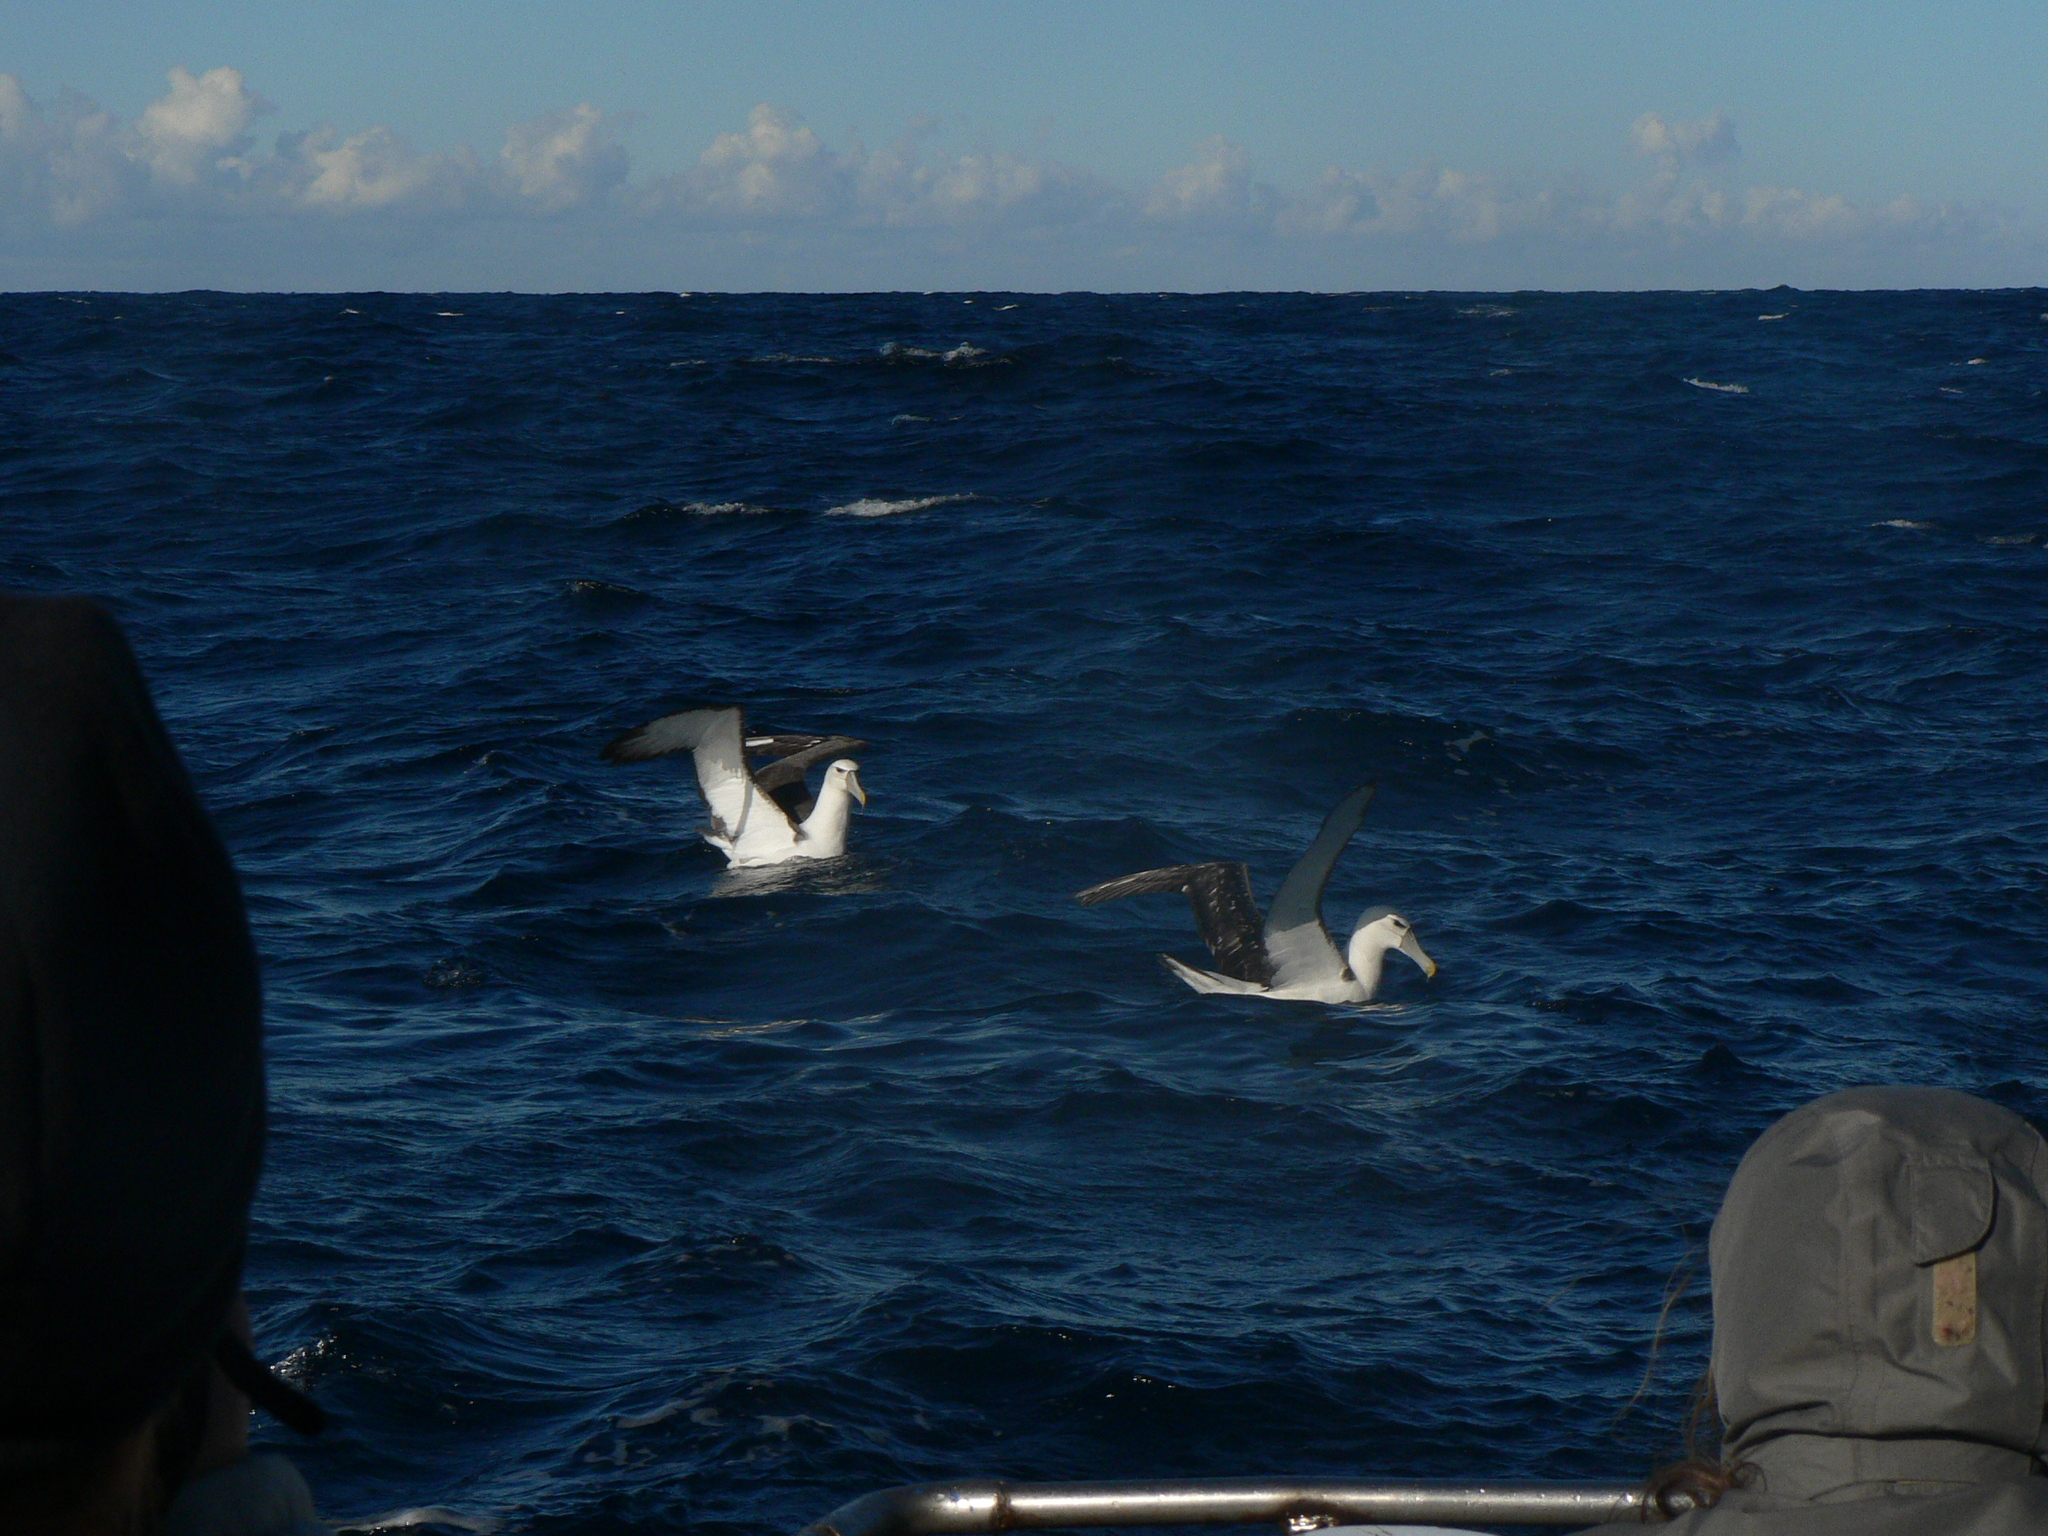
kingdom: Animalia
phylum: Chordata
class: Aves
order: Procellariiformes
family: Diomedeidae
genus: Thalassarche
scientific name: Thalassarche cauta
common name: Shy albatross
